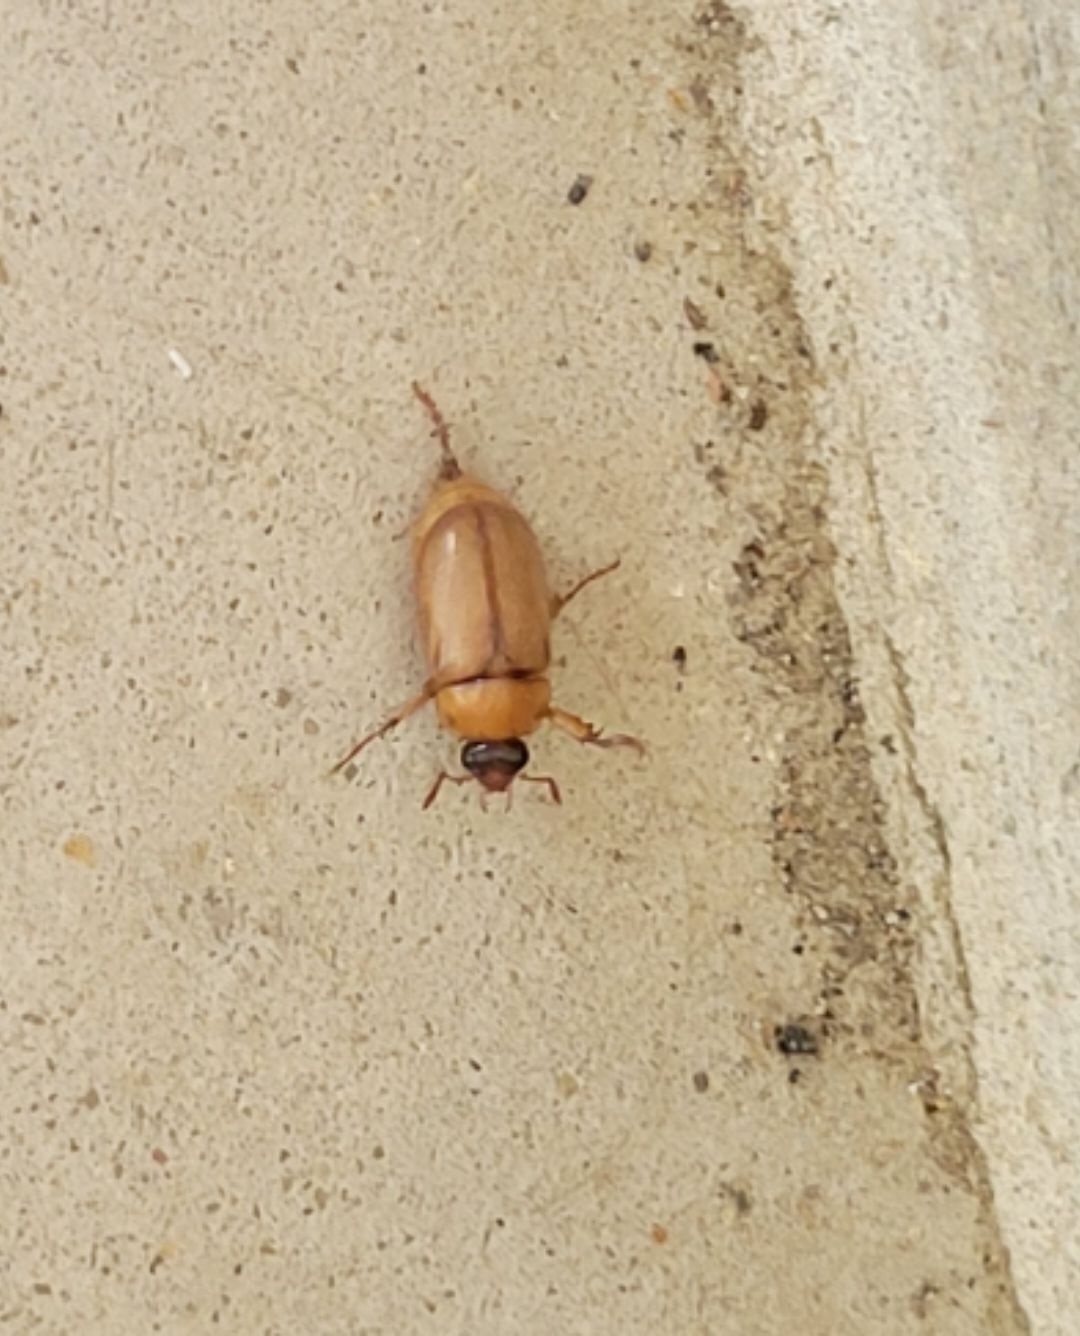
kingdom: Animalia
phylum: Arthropoda
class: Insecta
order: Coleoptera
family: Scarabaeidae
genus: Cyclocephala
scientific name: Cyclocephala lurida
